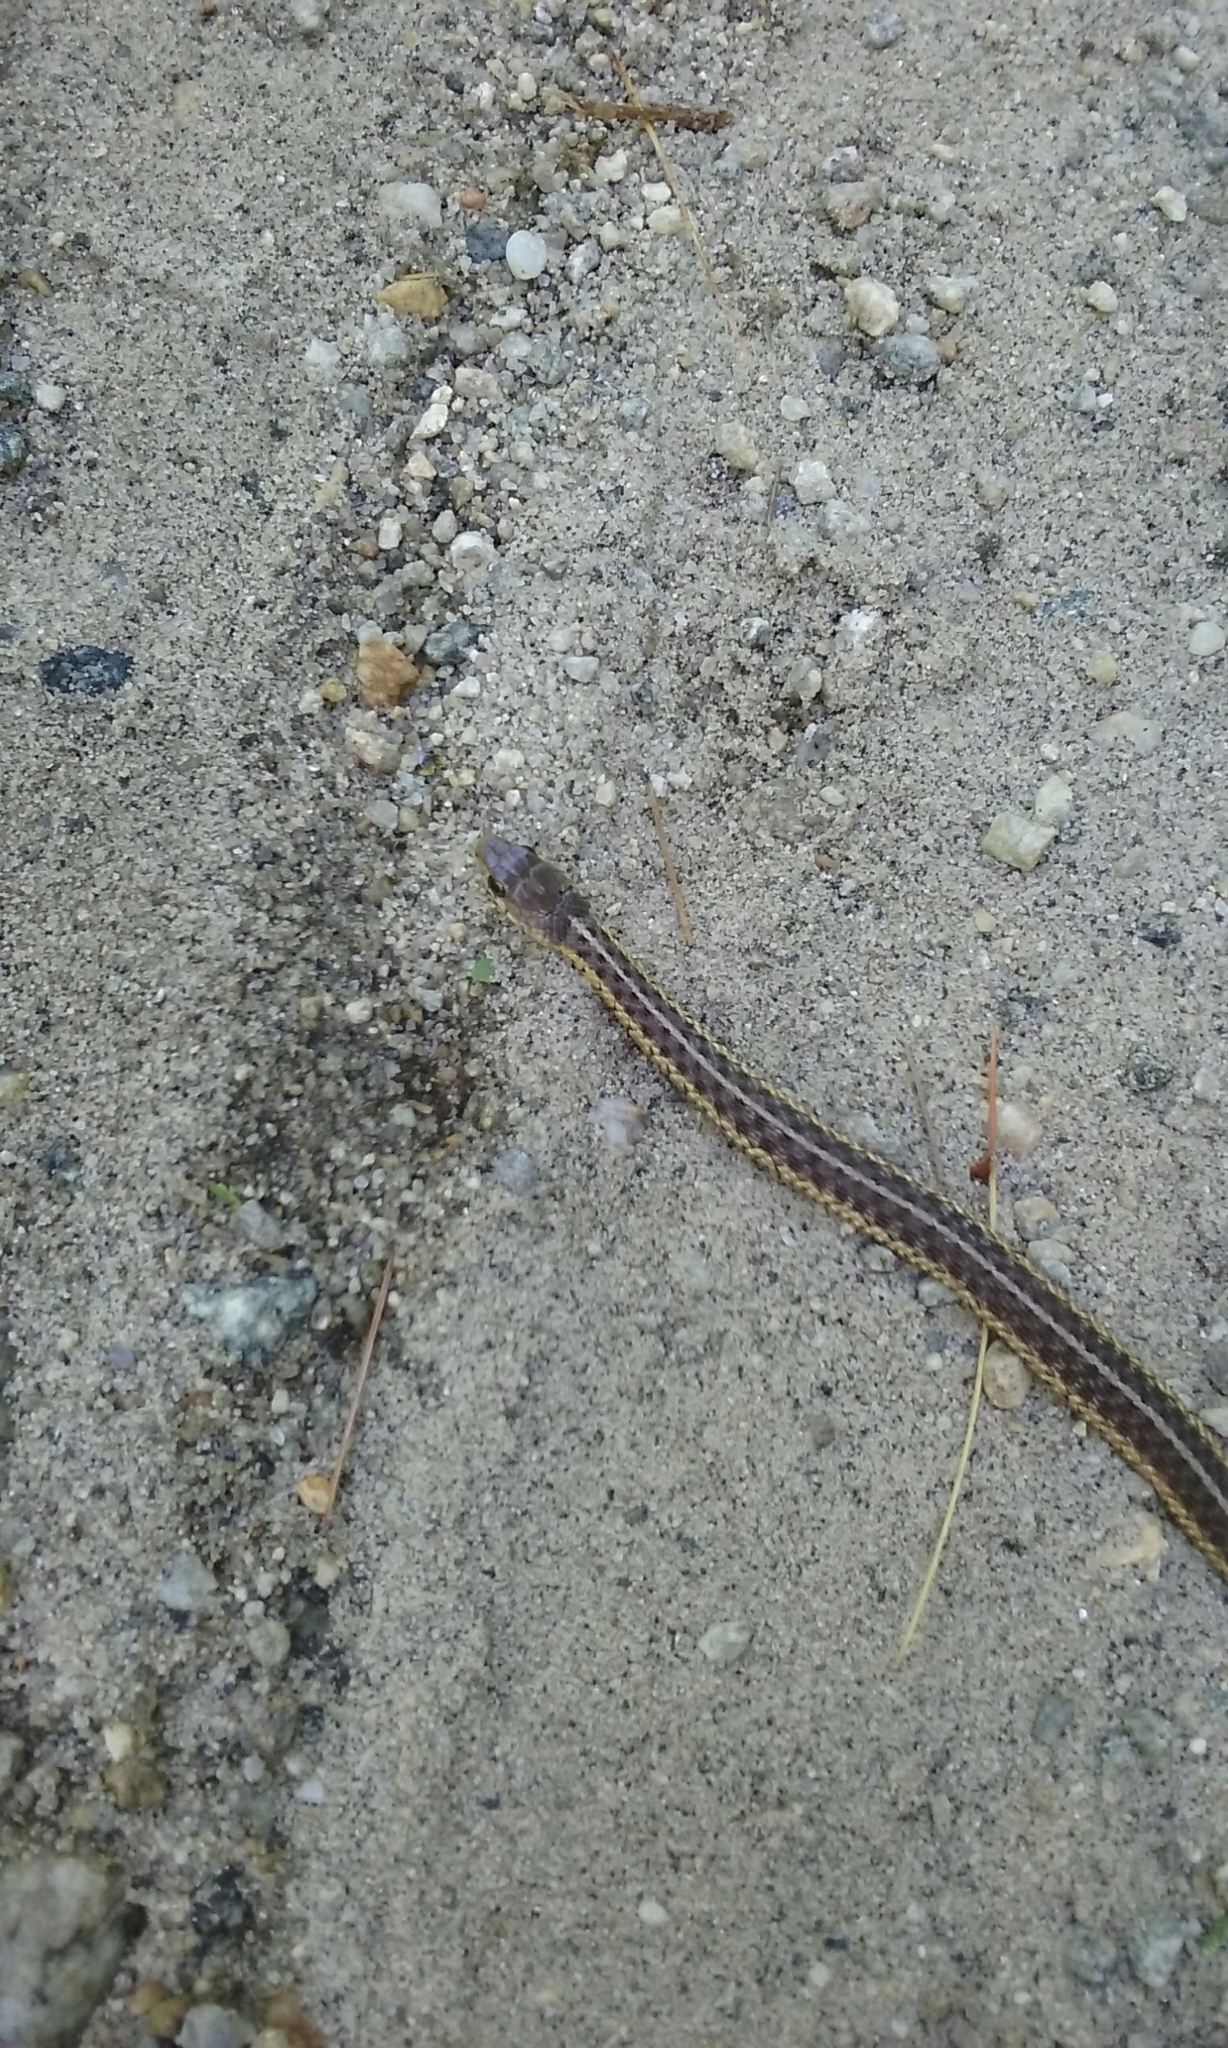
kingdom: Animalia
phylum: Chordata
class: Squamata
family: Colubridae
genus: Thamnophis
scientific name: Thamnophis sirtalis
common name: Common garter snake
